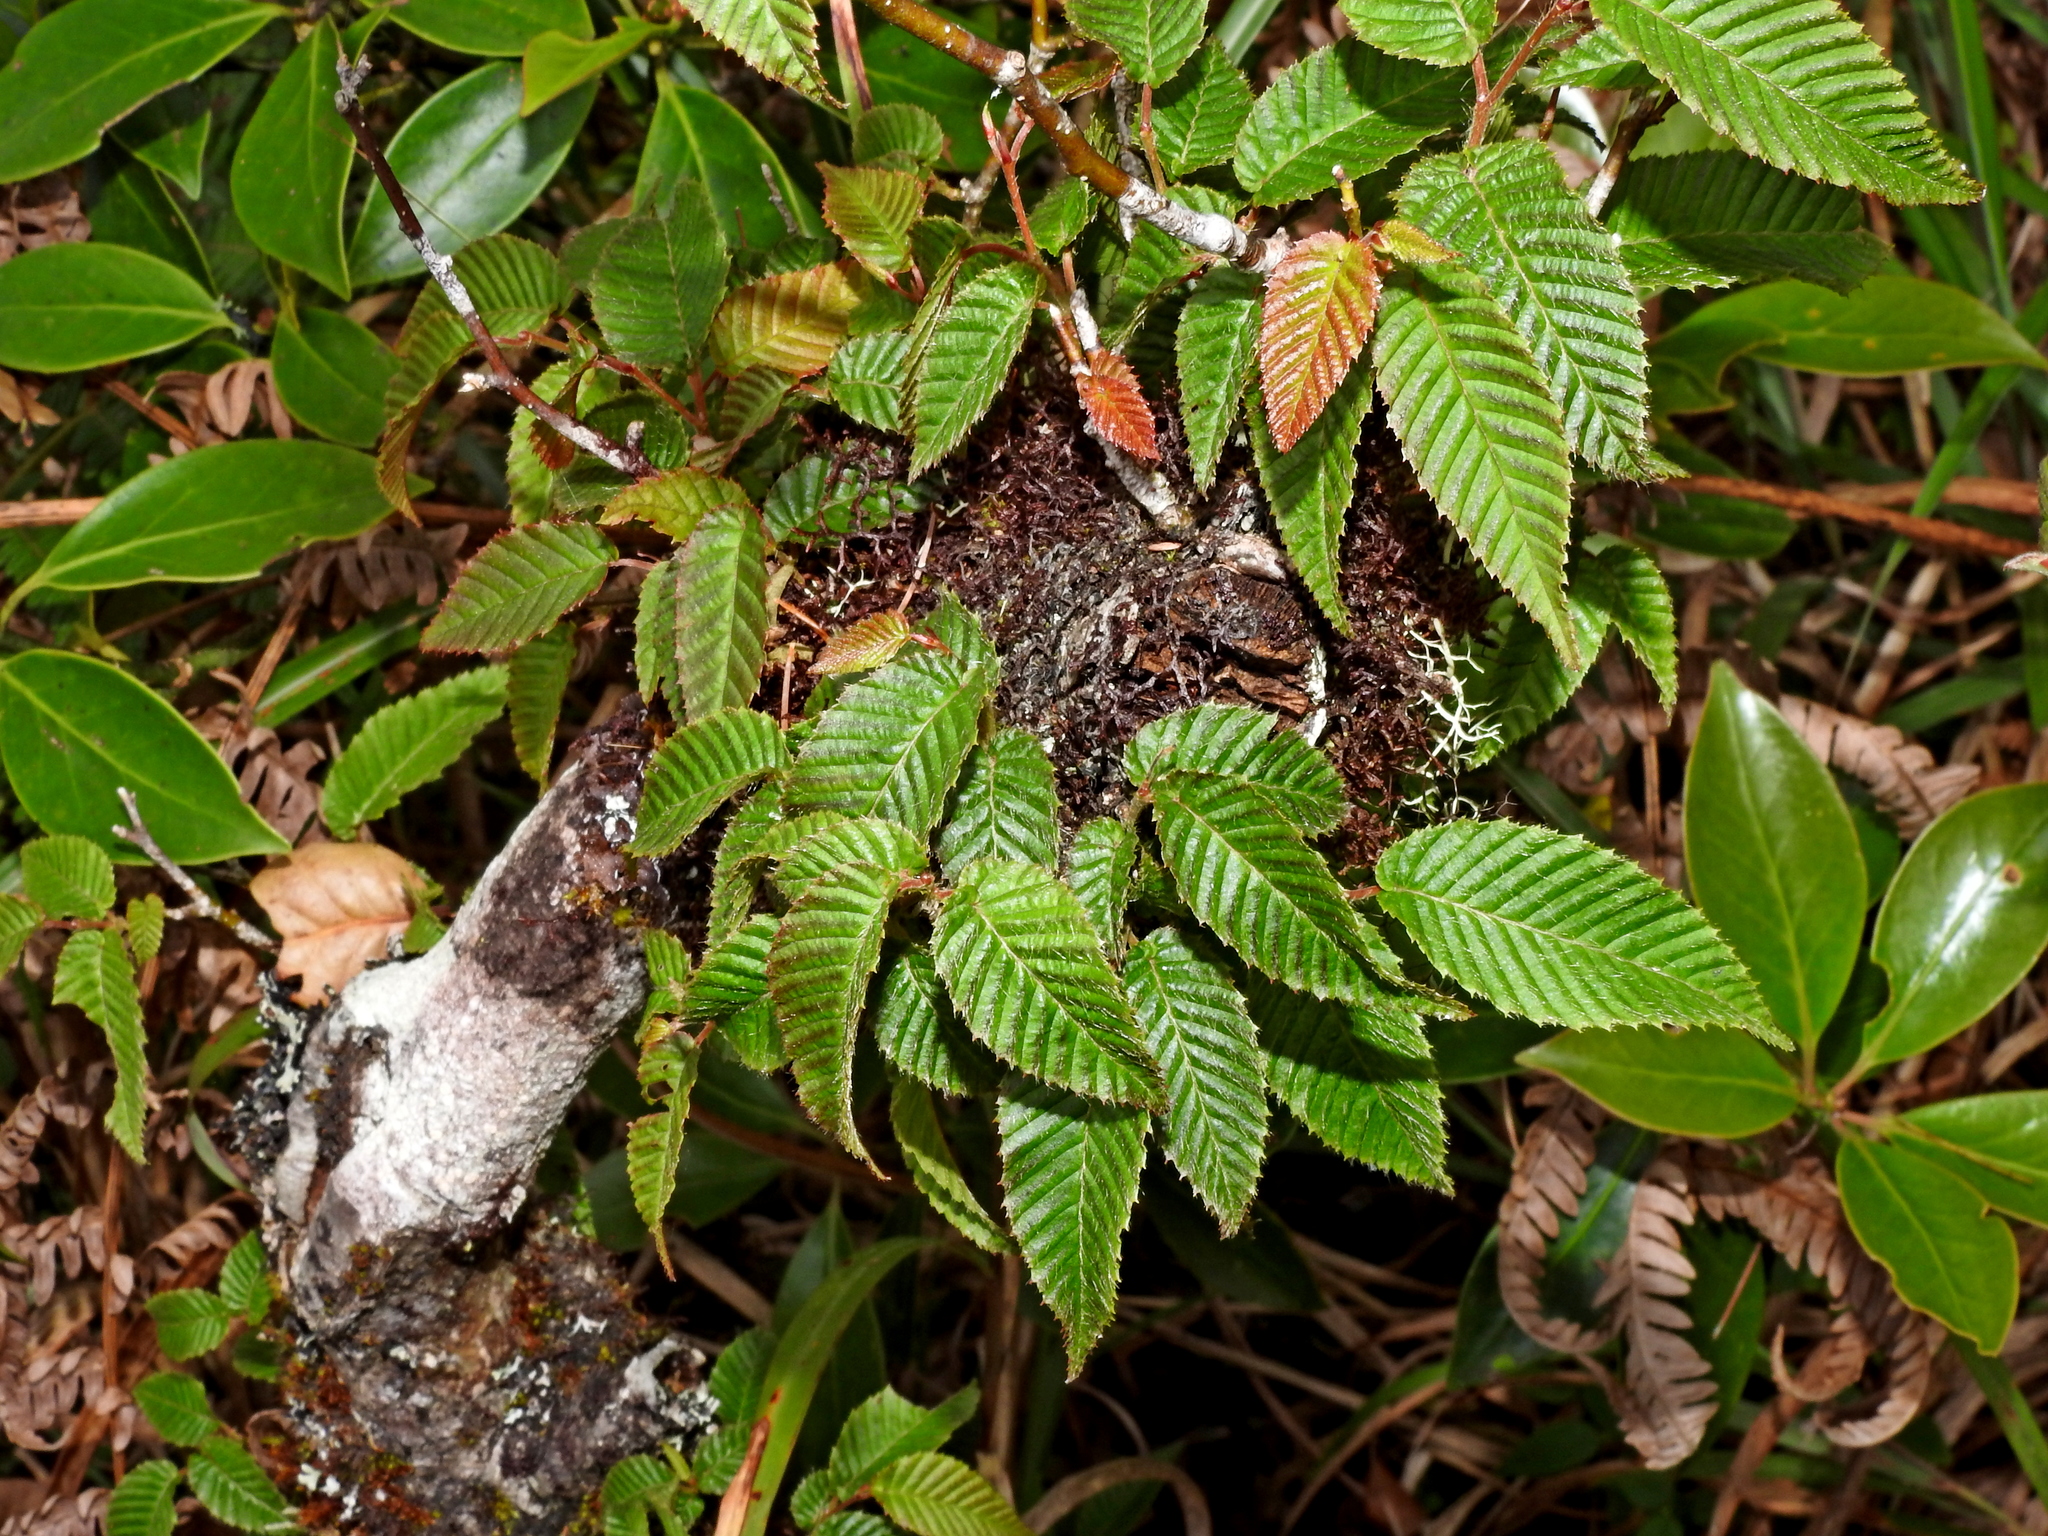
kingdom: Plantae
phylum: Tracheophyta
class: Magnoliopsida
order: Fagales
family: Betulaceae
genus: Carpinus
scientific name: Carpinus rankanensis
